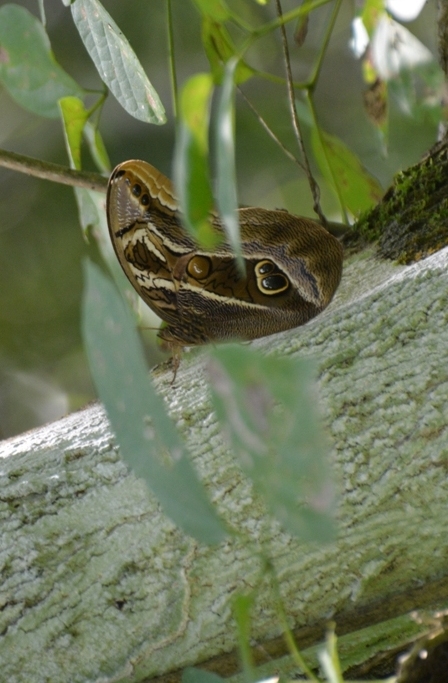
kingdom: Animalia
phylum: Arthropoda
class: Insecta
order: Lepidoptera
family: Nymphalidae
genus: Eryphanis
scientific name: Eryphanis aesacus
